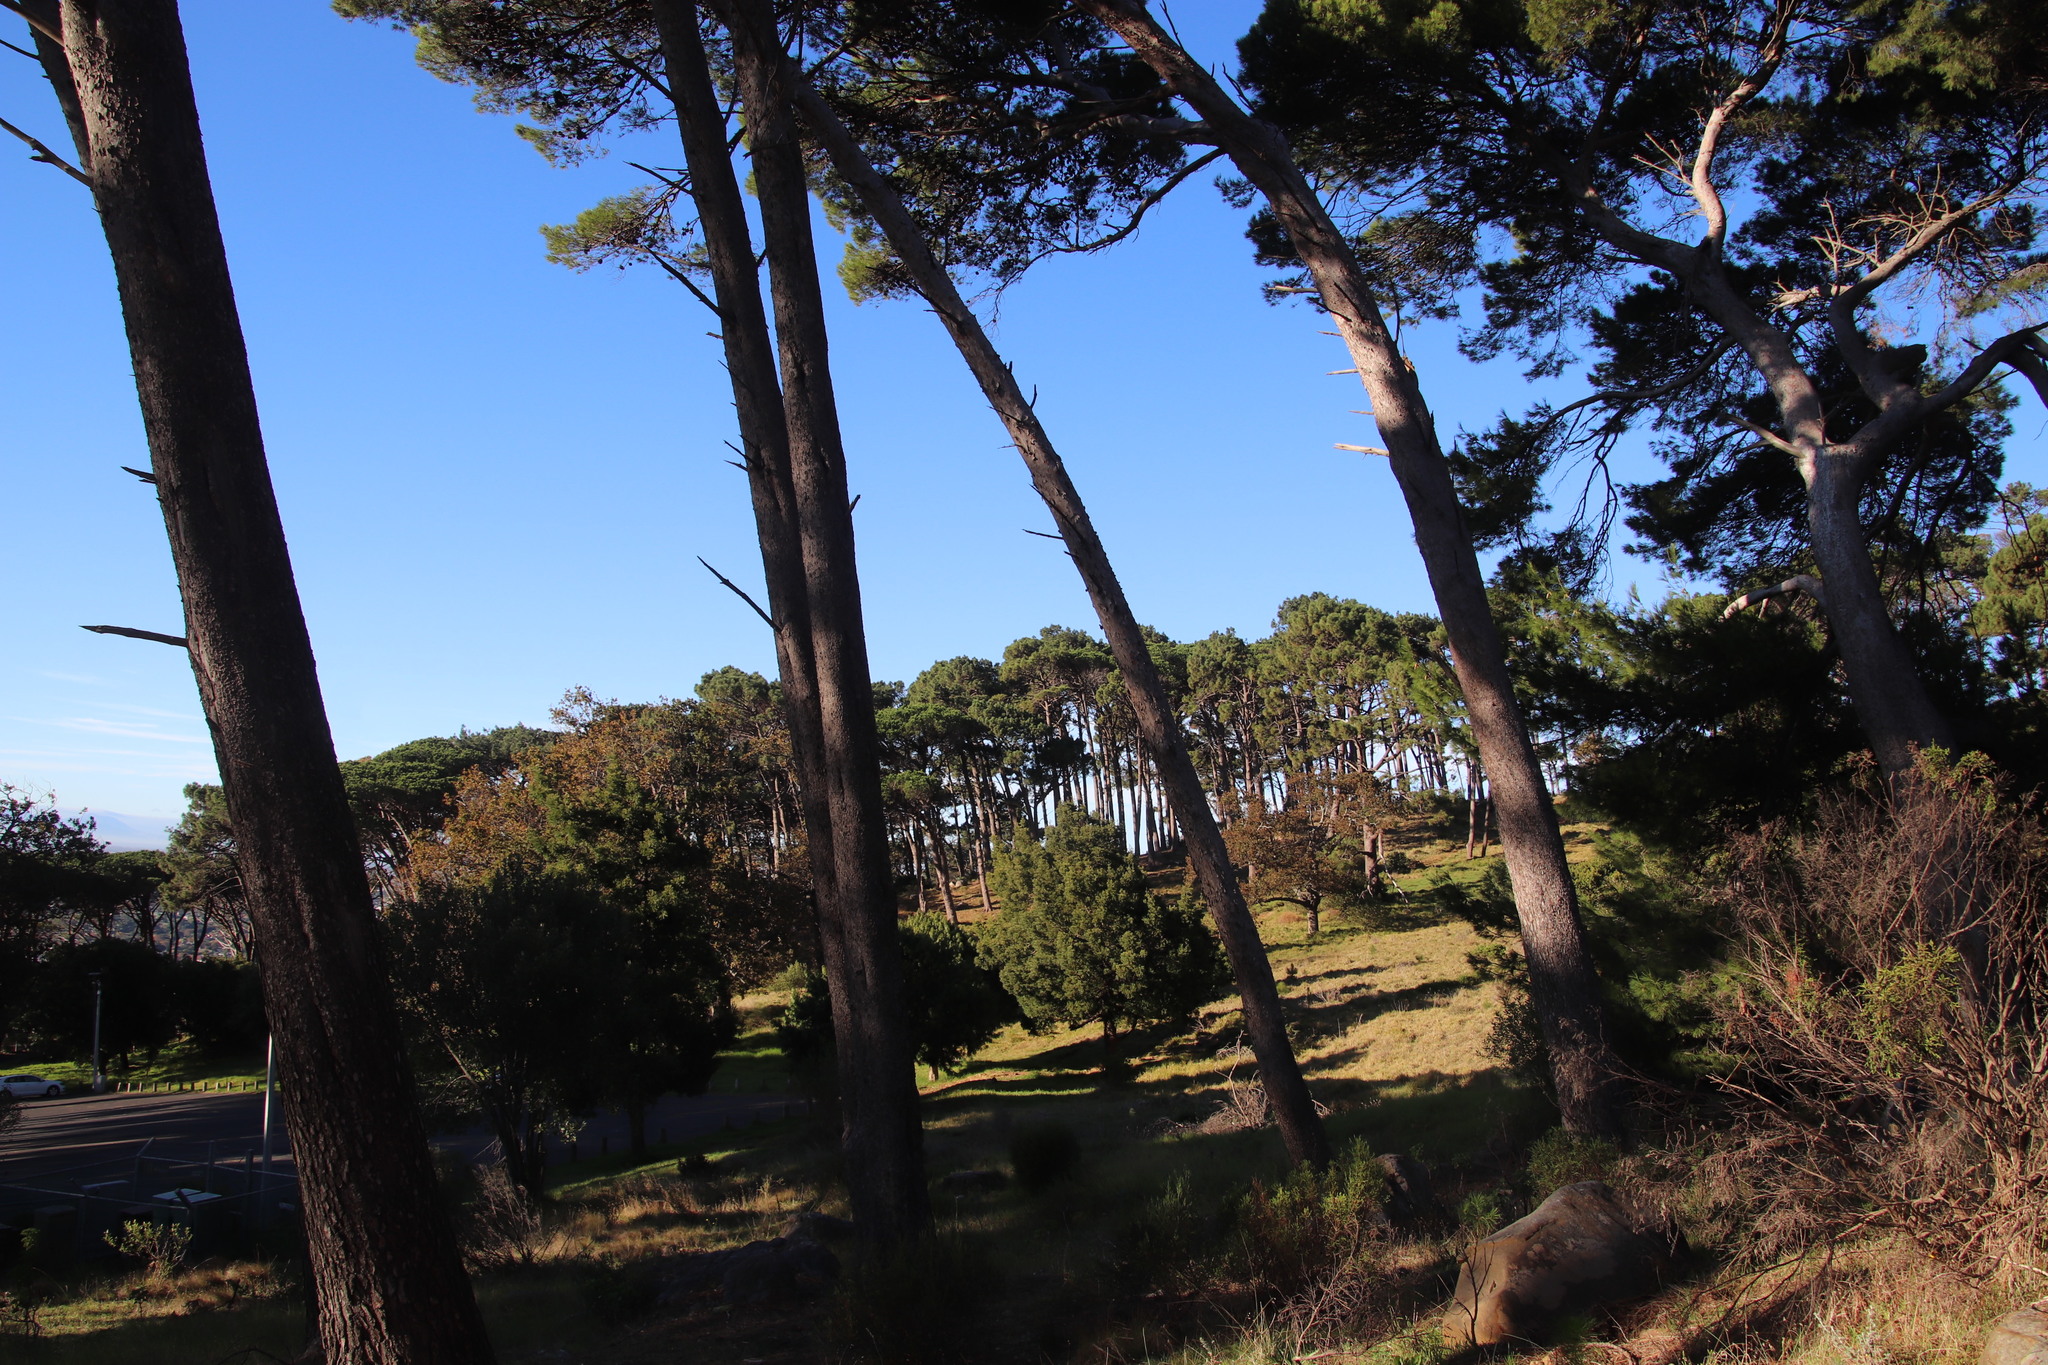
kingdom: Plantae
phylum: Tracheophyta
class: Pinopsida
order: Pinales
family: Pinaceae
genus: Pinus
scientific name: Pinus pinaster
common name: Maritime pine
